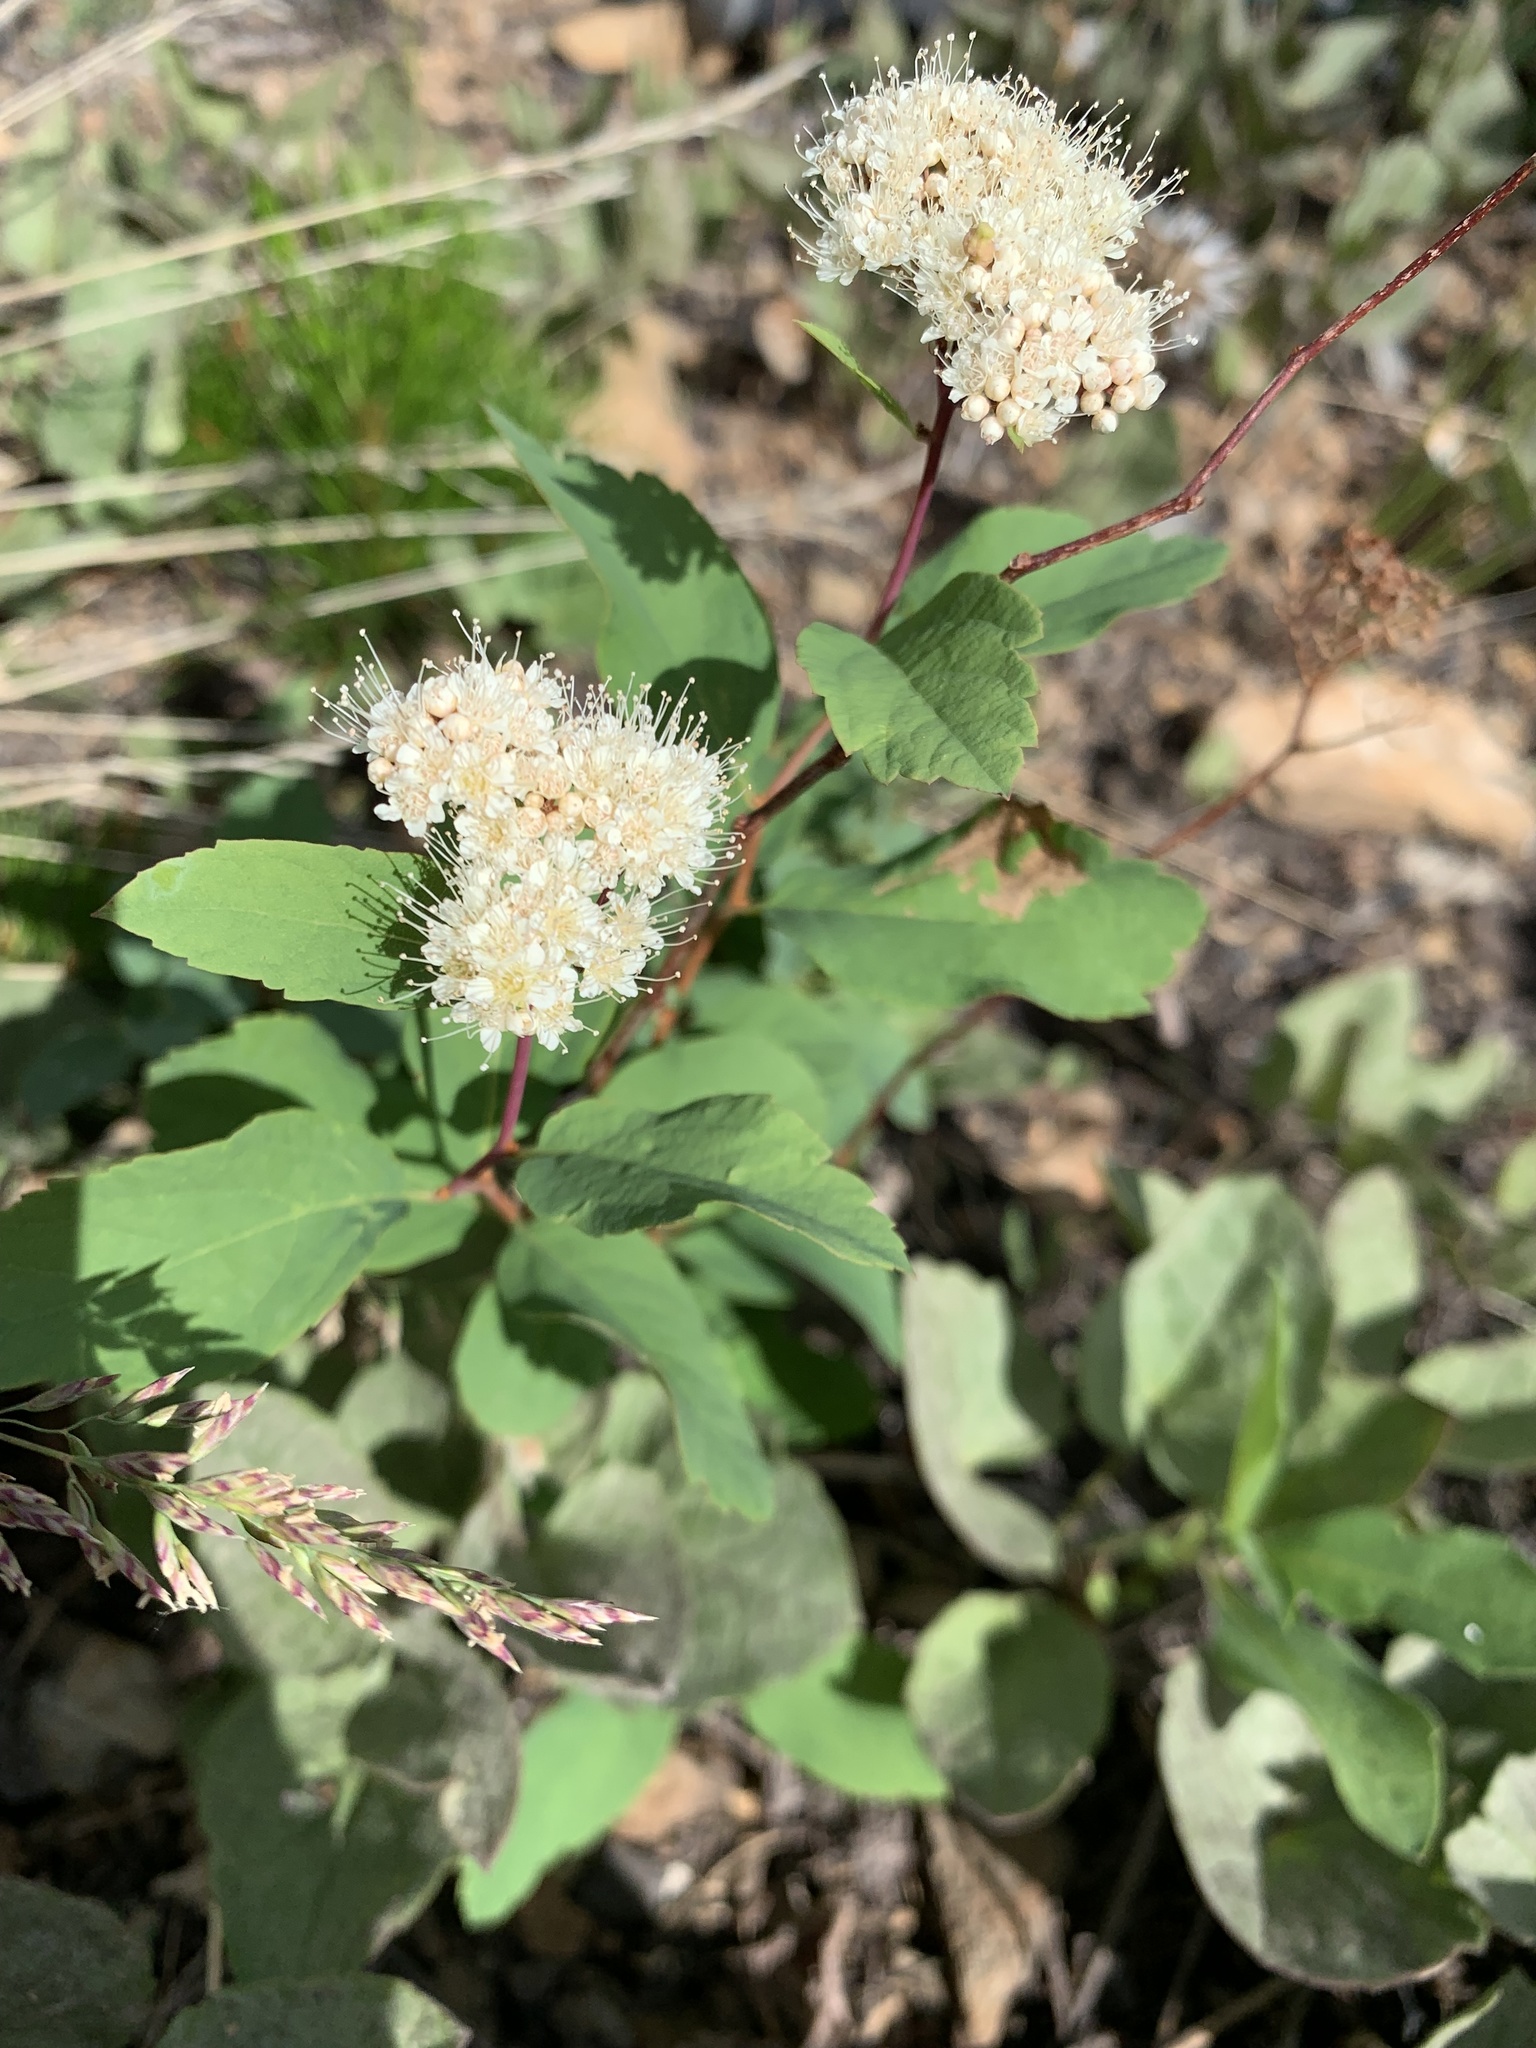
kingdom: Plantae
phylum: Tracheophyta
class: Magnoliopsida
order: Rosales
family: Rosaceae
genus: Spiraea
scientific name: Spiraea lucida
